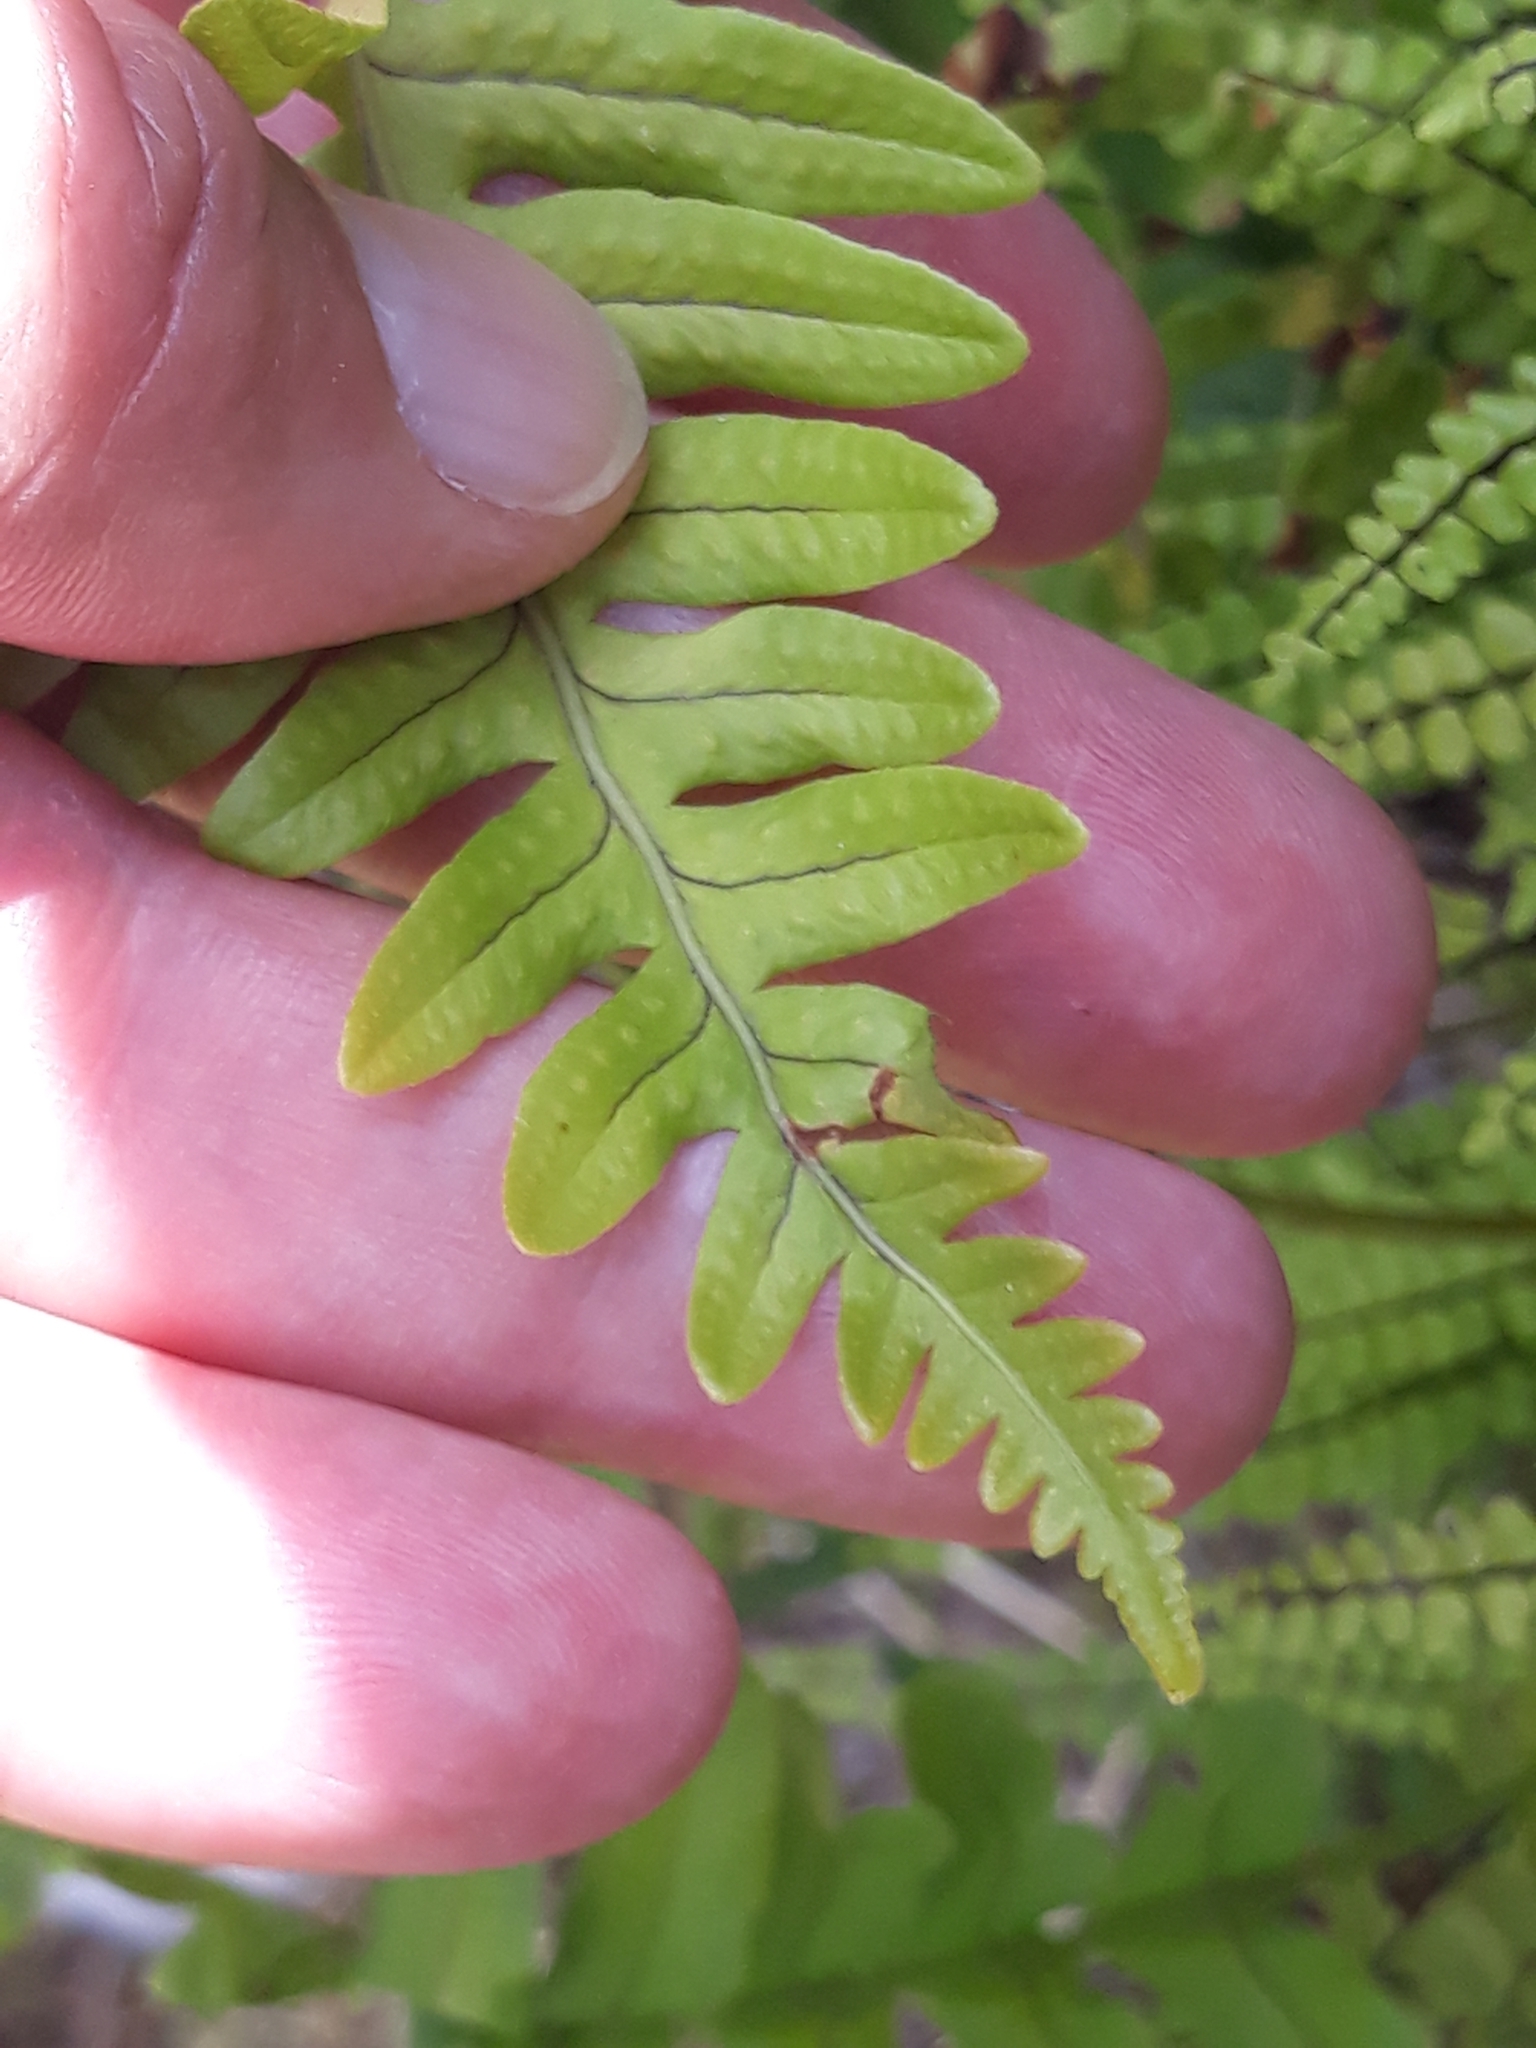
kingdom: Plantae
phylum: Tracheophyta
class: Polypodiopsida
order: Polypodiales
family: Polypodiaceae
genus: Polypodium
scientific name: Polypodium vulgare
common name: Common polypody
